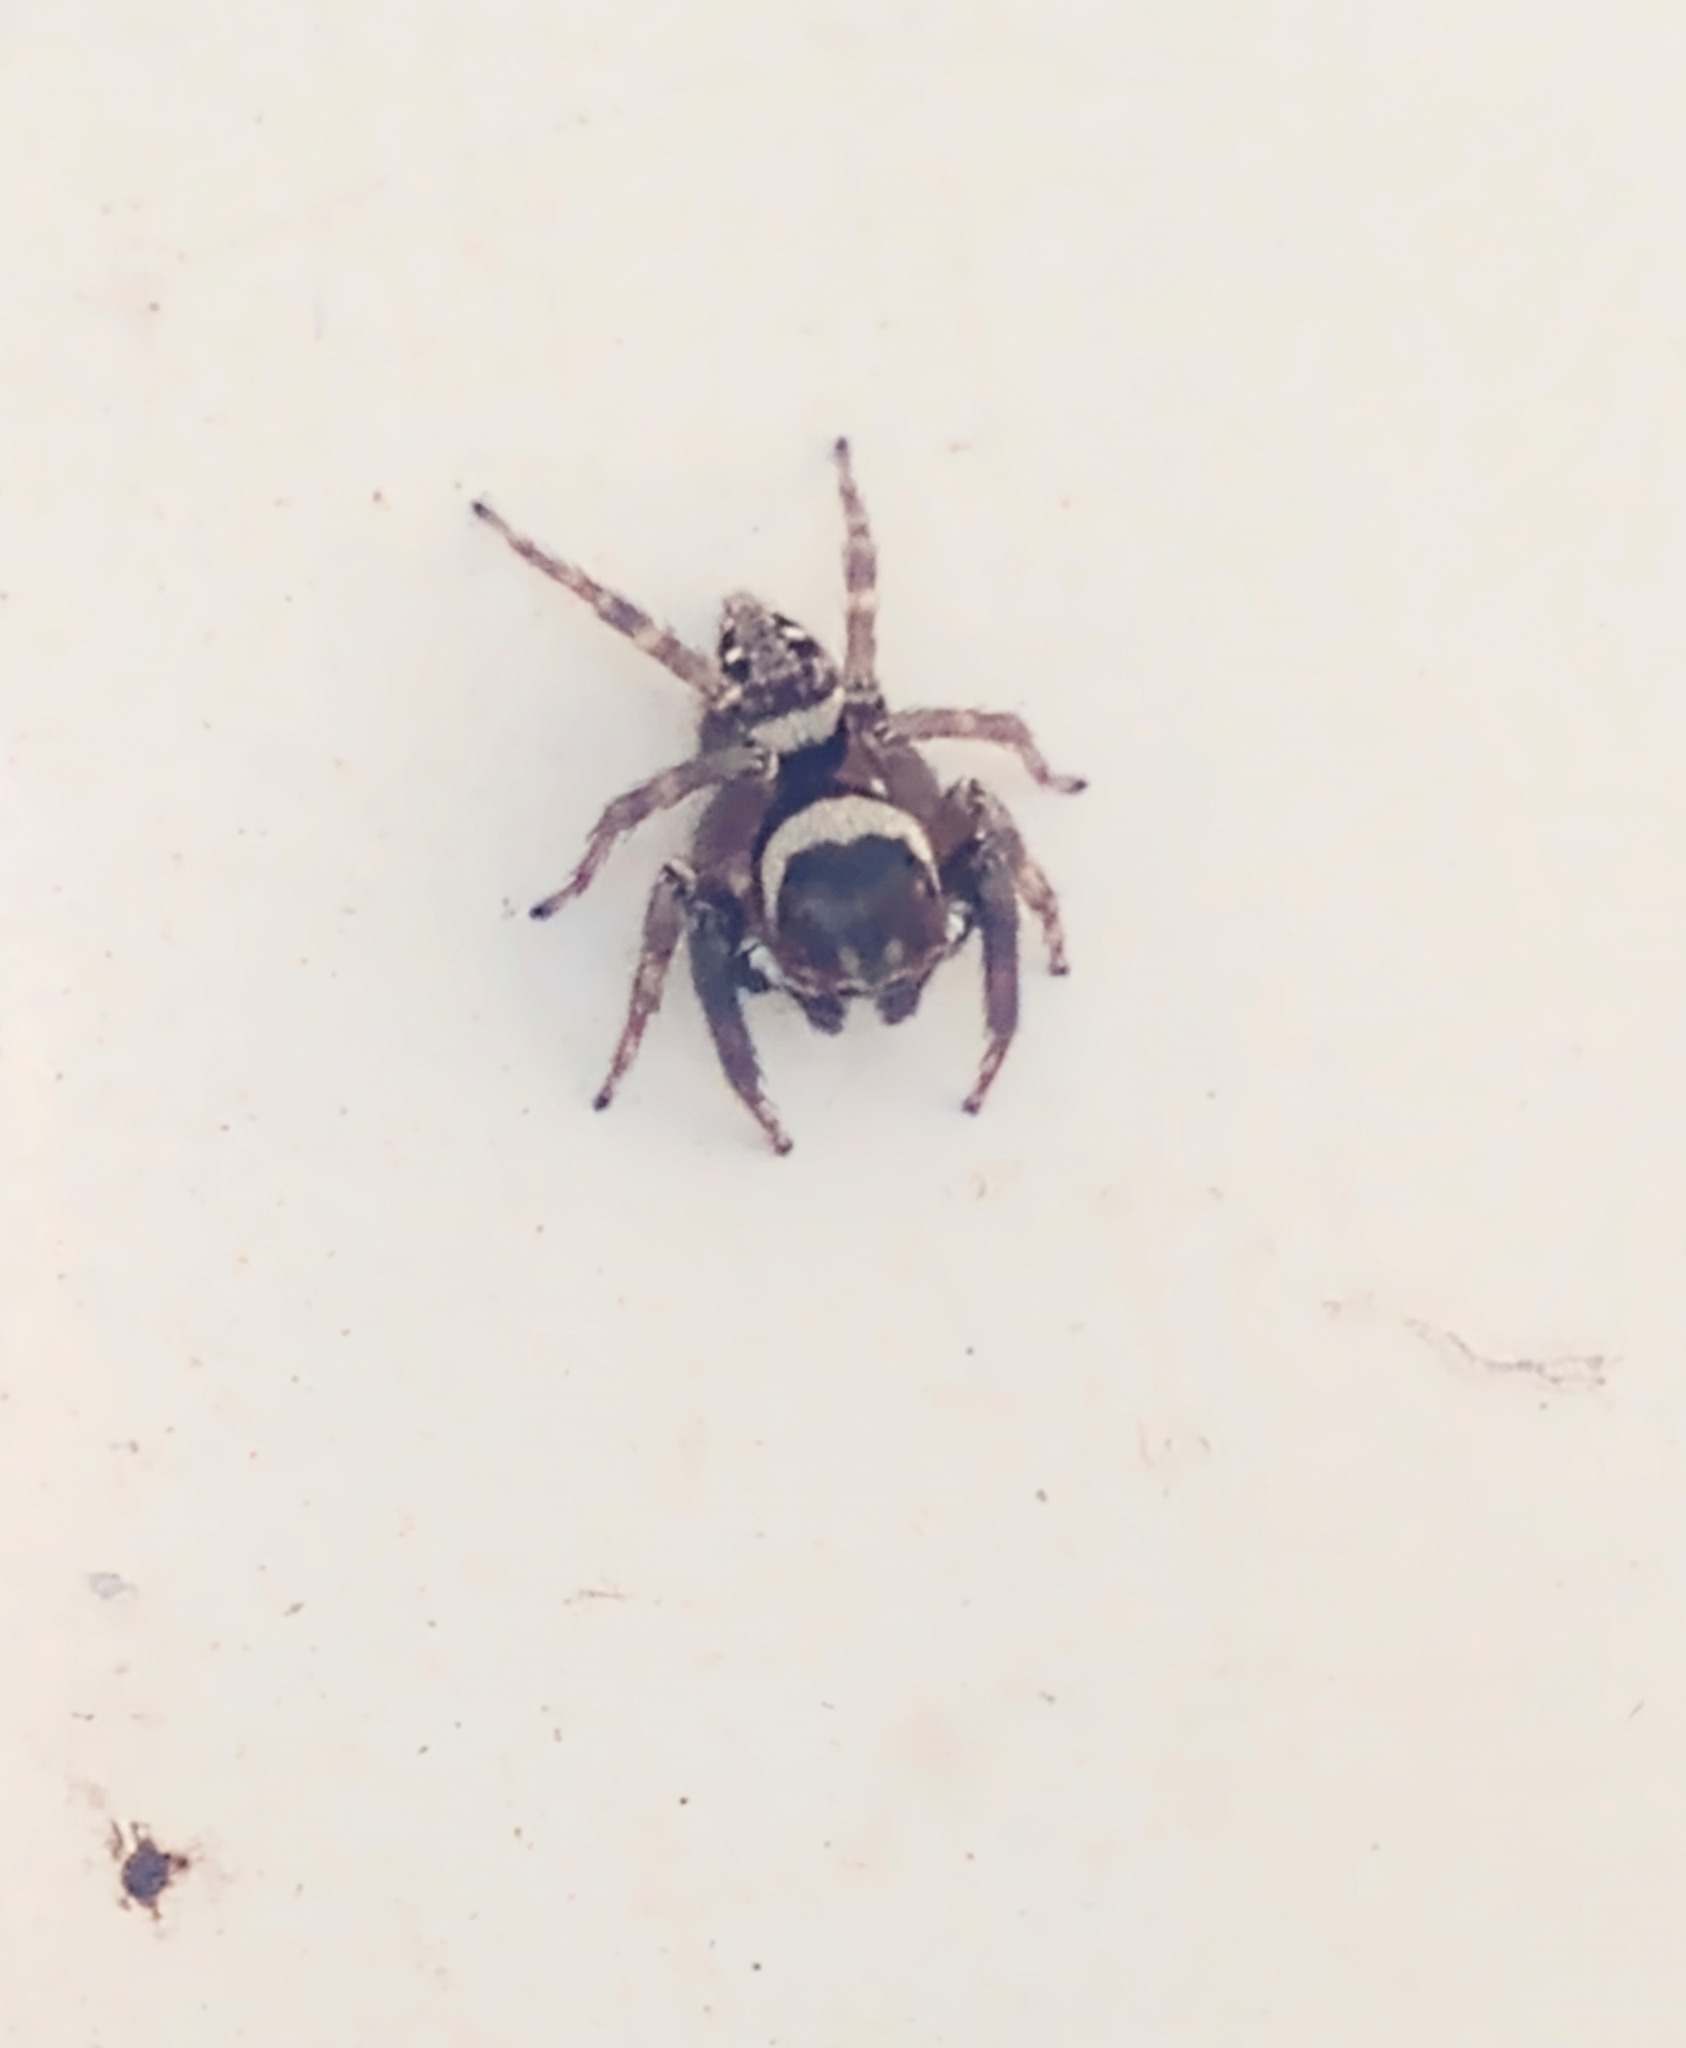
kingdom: Animalia
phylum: Arthropoda
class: Arachnida
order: Araneae
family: Salticidae
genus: Hasarius
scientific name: Hasarius adansoni
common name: Jumping spider
